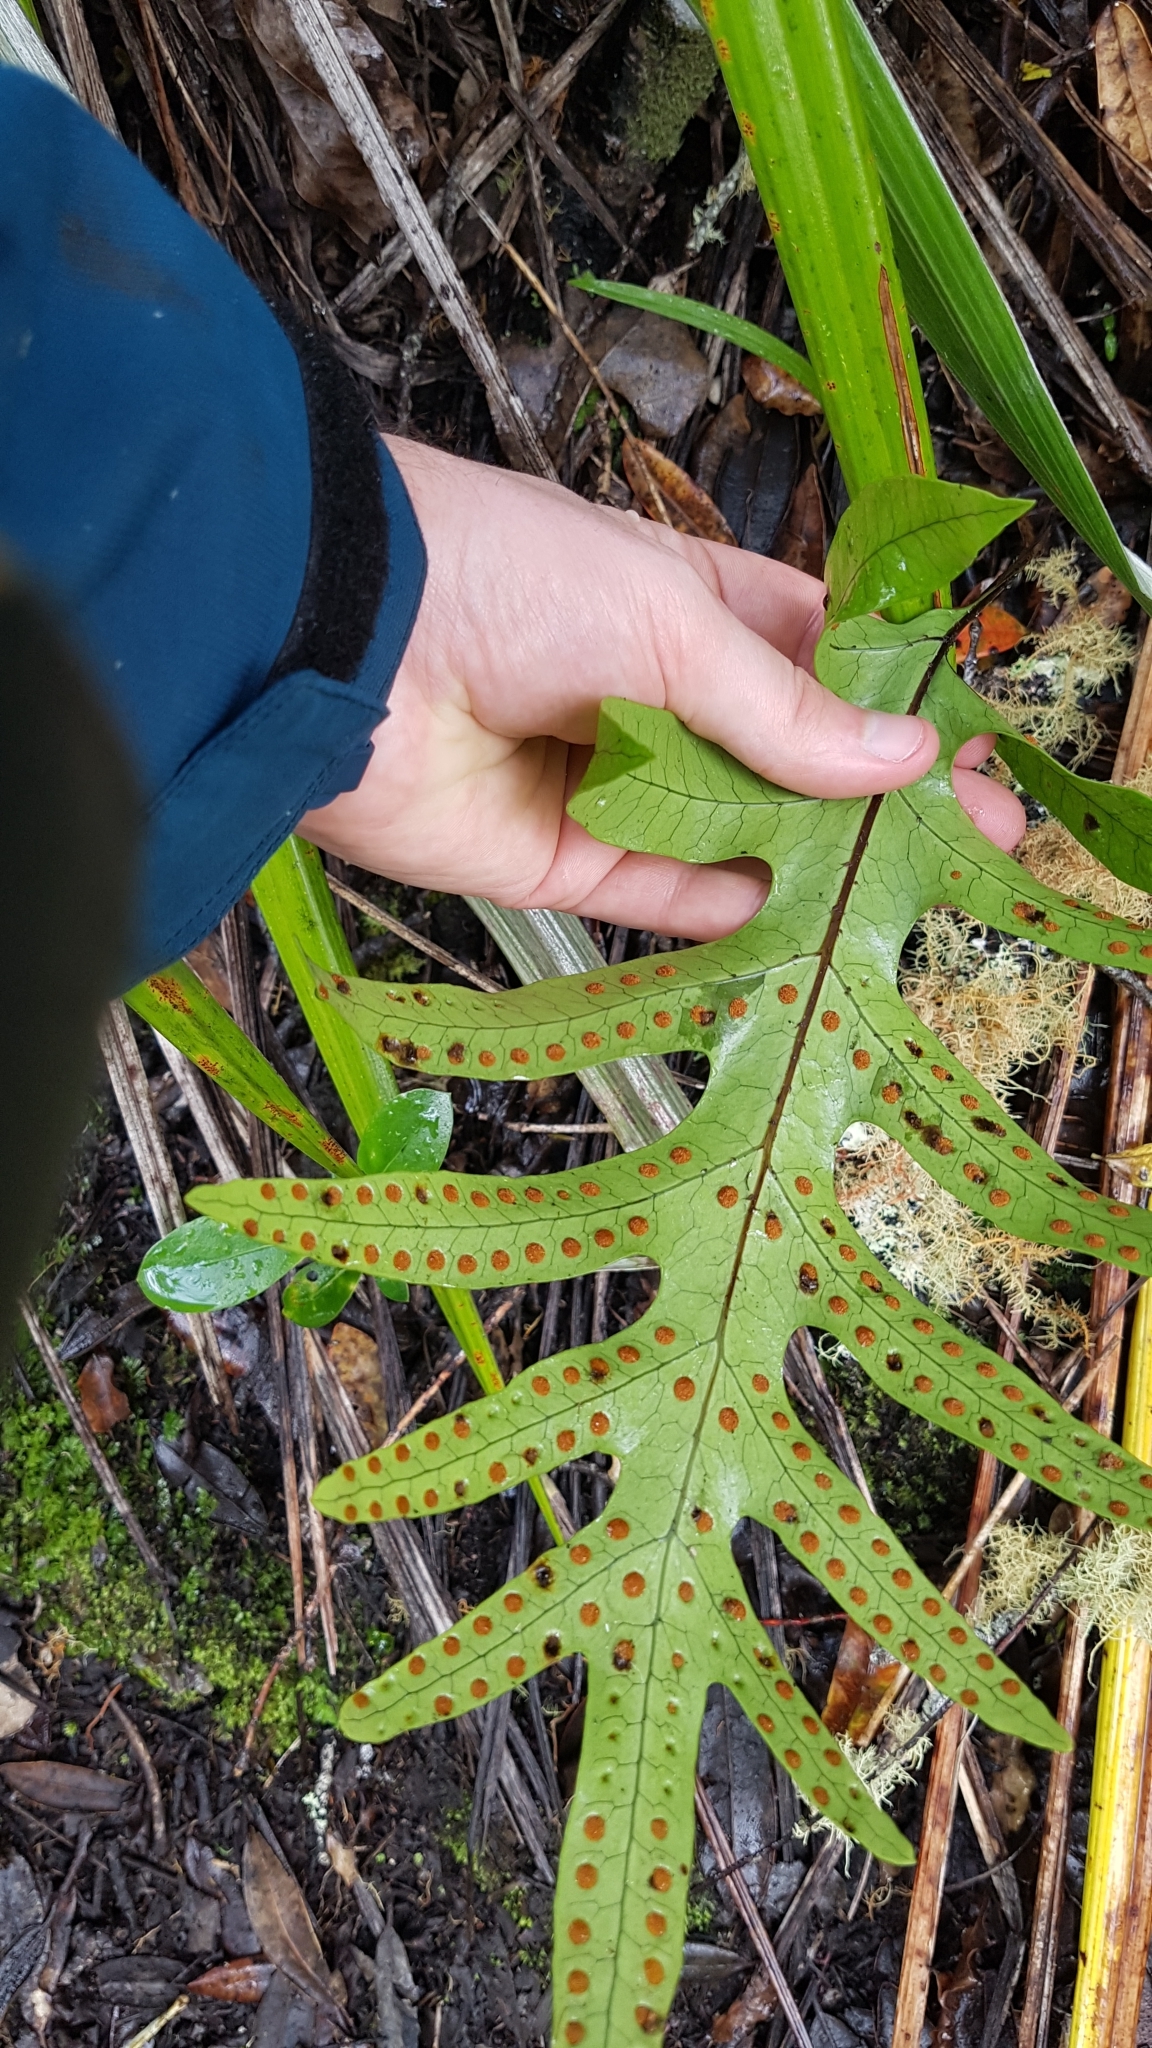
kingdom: Plantae
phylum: Tracheophyta
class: Polypodiopsida
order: Polypodiales
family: Polypodiaceae
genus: Lecanopteris
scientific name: Lecanopteris pustulata
